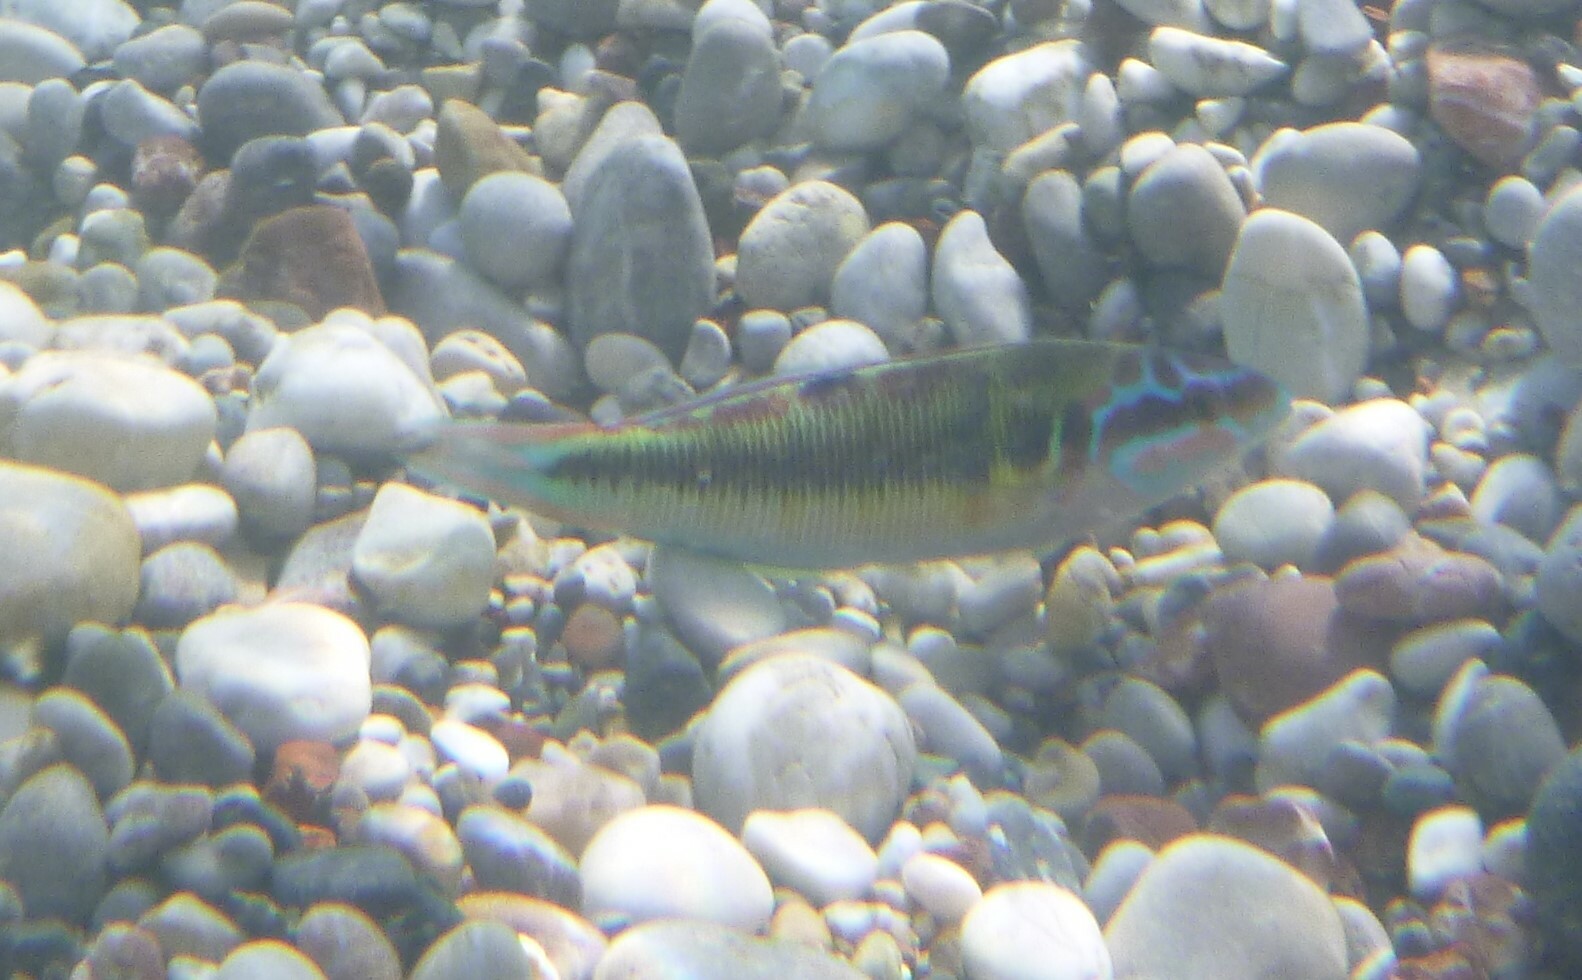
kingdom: Animalia
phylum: Chordata
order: Perciformes
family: Labridae
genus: Thalassoma
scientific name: Thalassoma pavo
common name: Ornate wrasse
